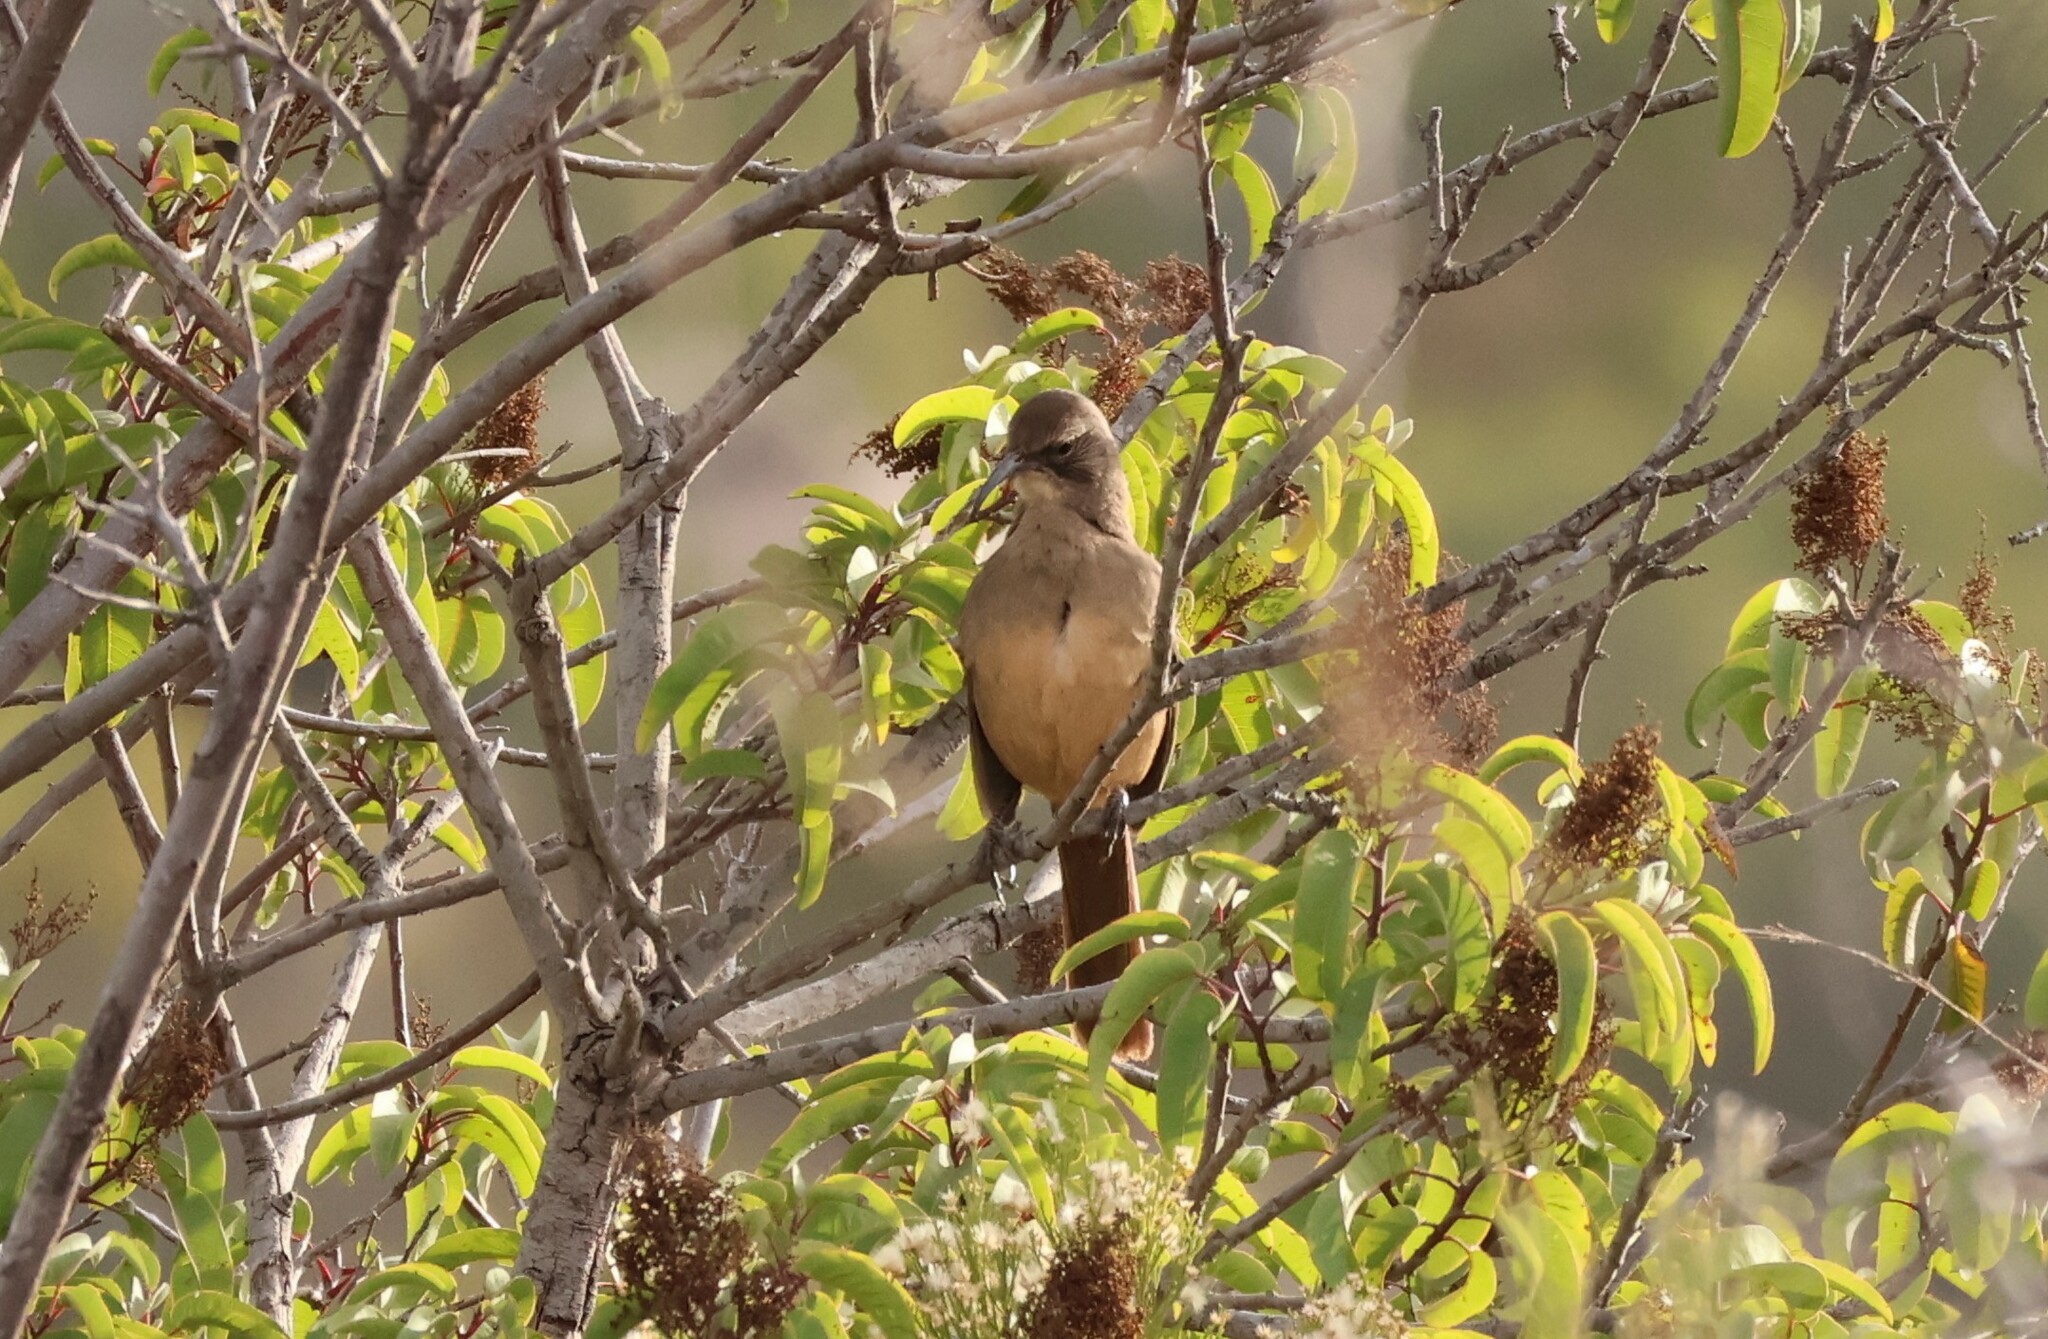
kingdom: Animalia
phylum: Chordata
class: Aves
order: Passeriformes
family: Mimidae
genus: Toxostoma
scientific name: Toxostoma redivivum
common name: California thrasher
